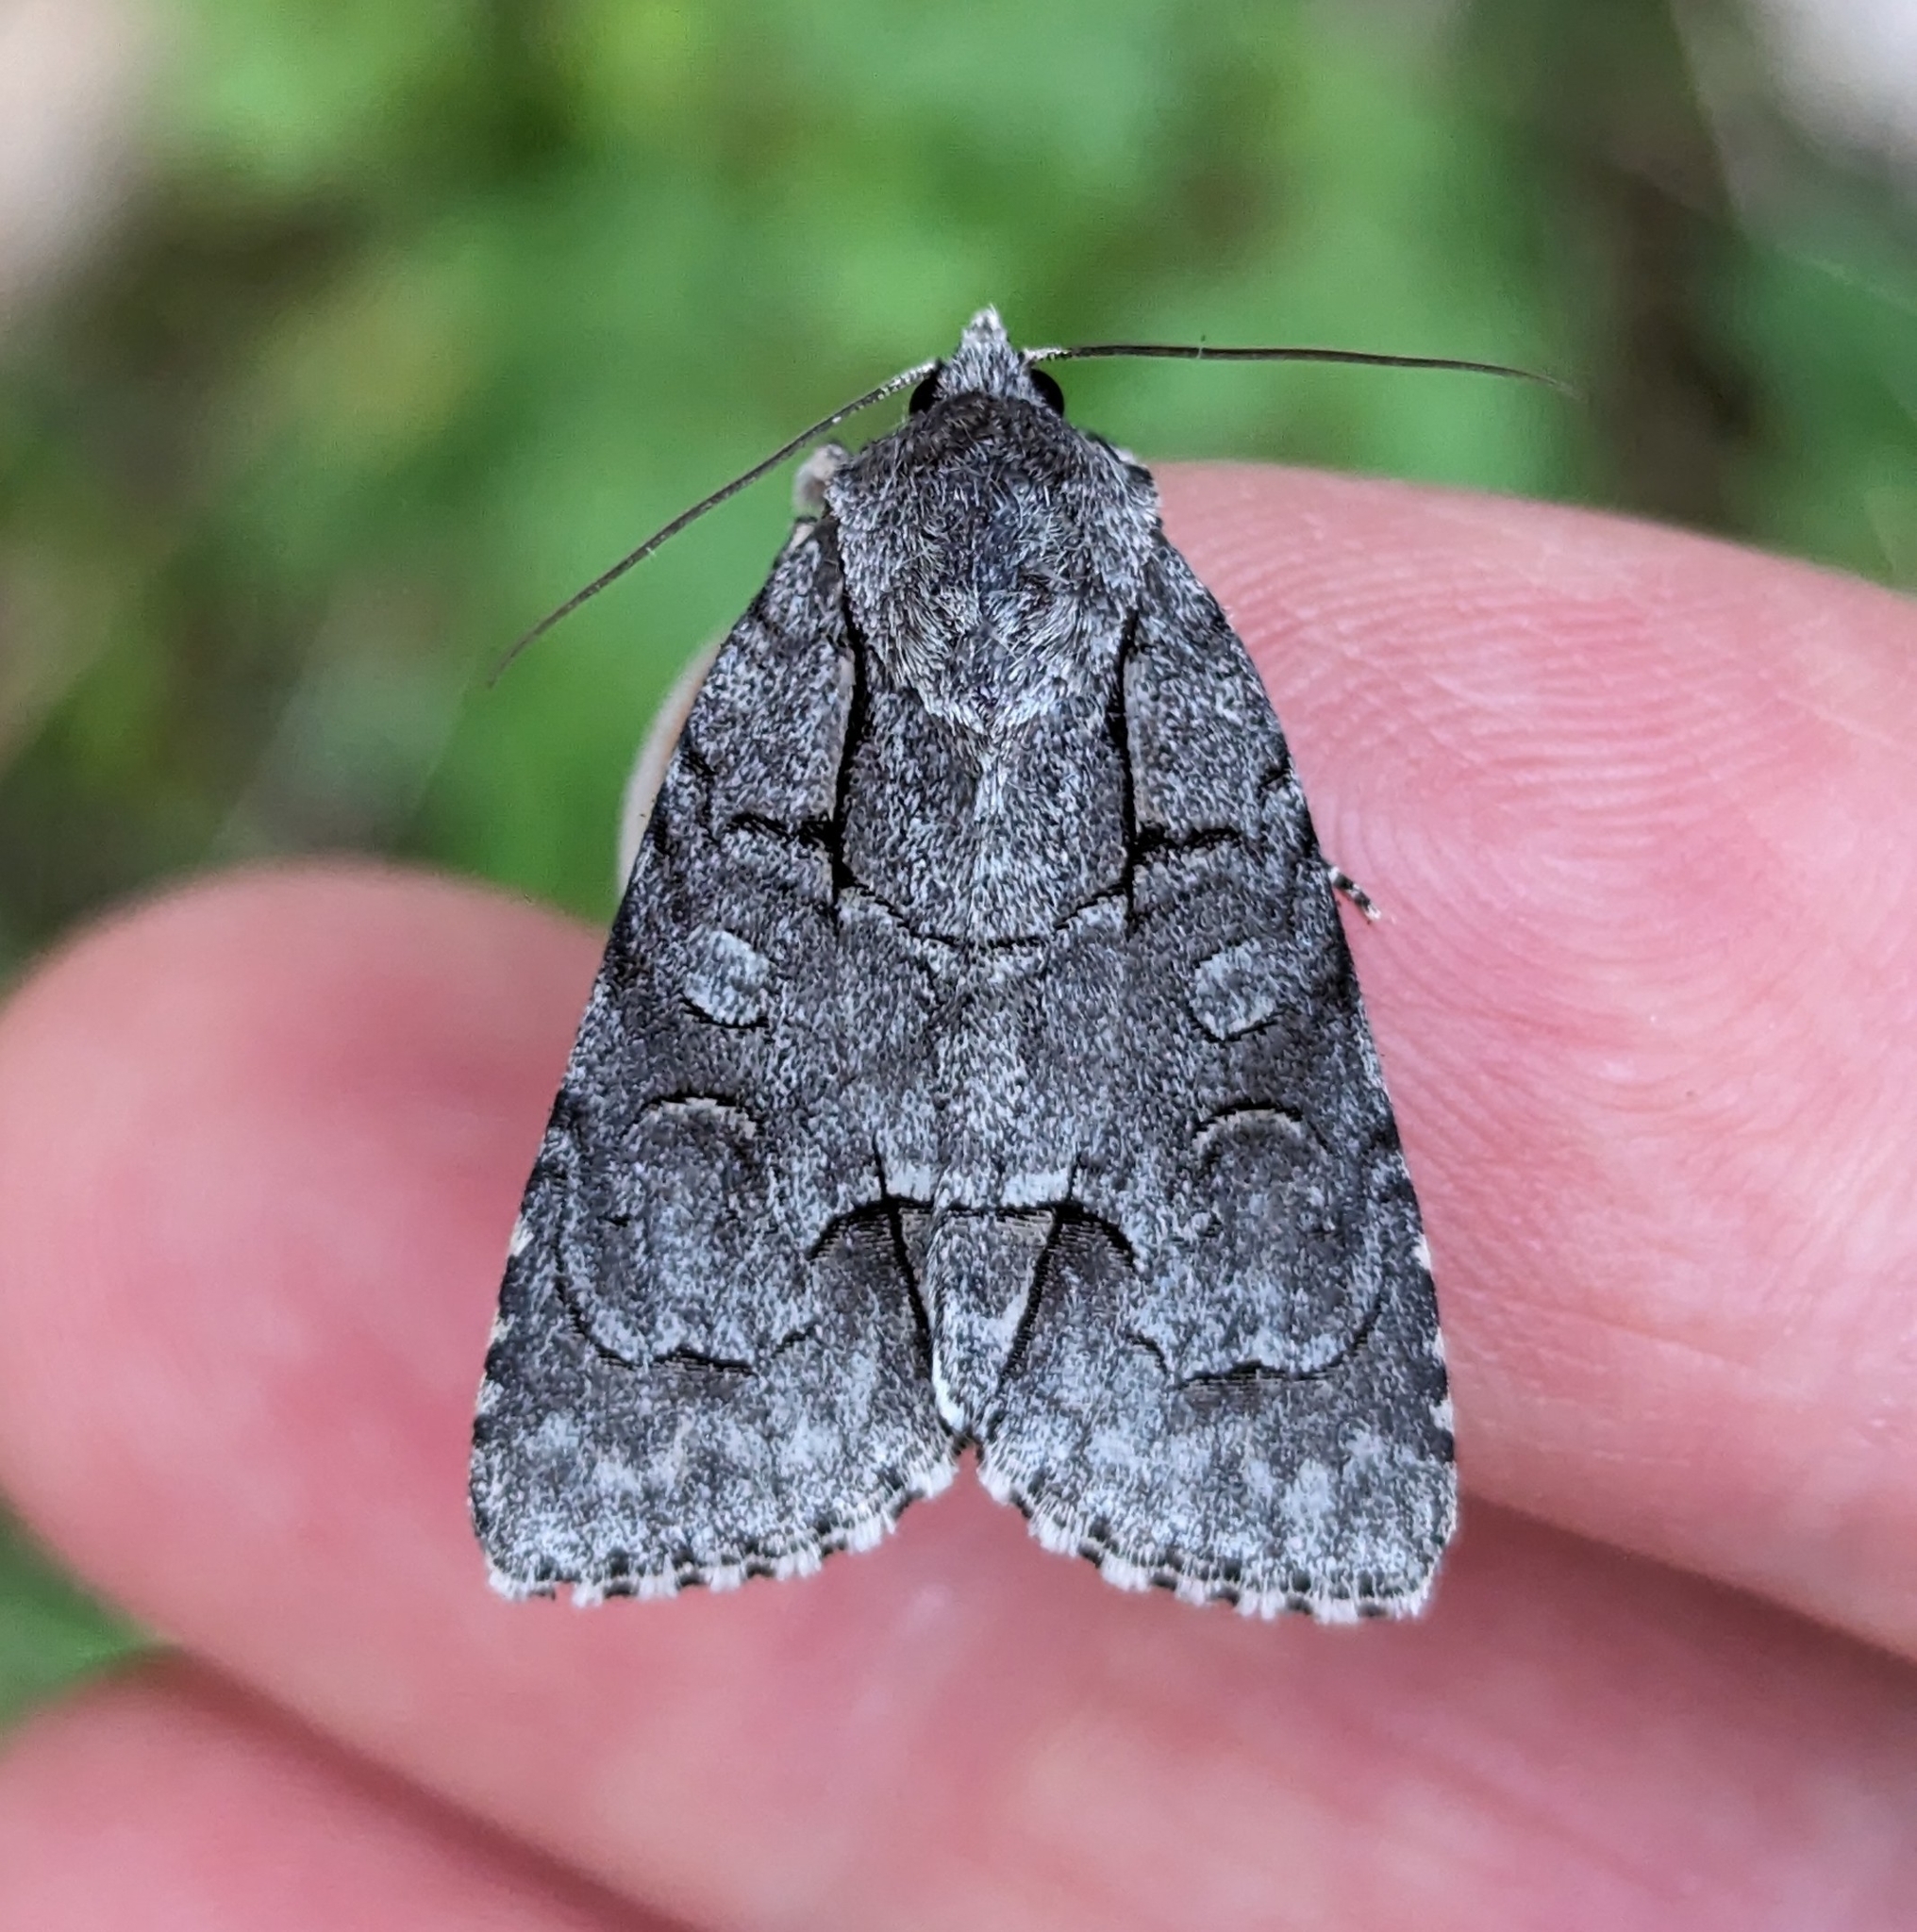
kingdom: Animalia
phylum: Arthropoda
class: Insecta
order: Lepidoptera
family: Noctuidae
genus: Acronicta
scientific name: Acronicta radcliffei
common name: Radcliffe's dagger
